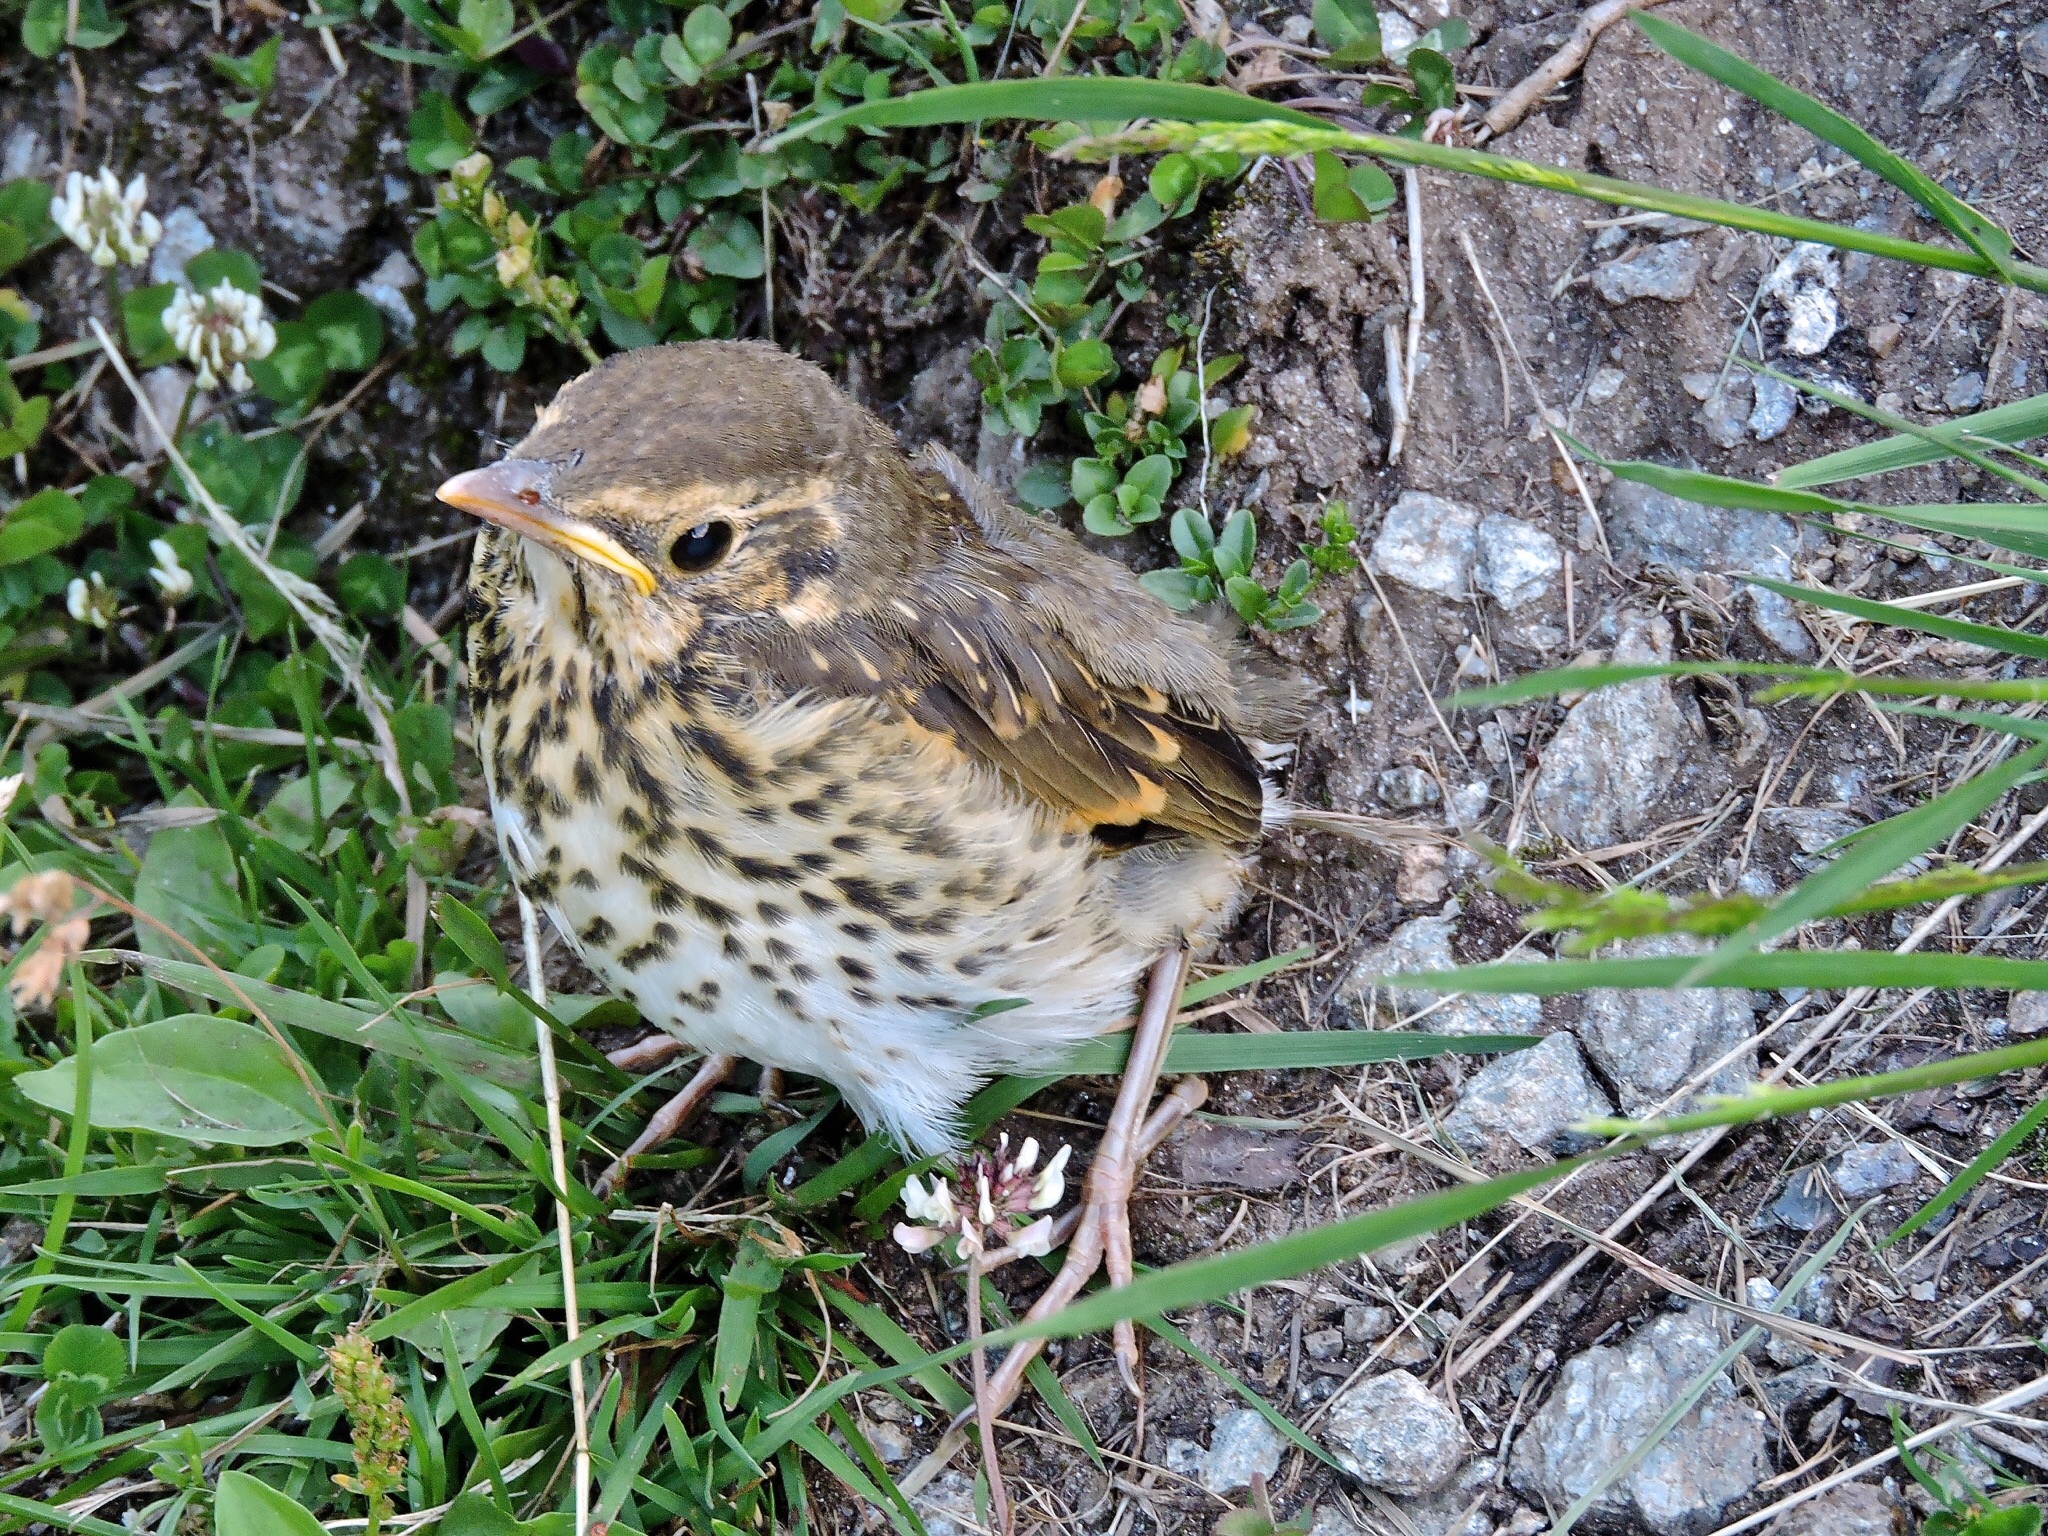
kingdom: Animalia
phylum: Chordata
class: Aves
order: Passeriformes
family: Turdidae
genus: Turdus
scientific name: Turdus philomelos
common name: Song thrush
